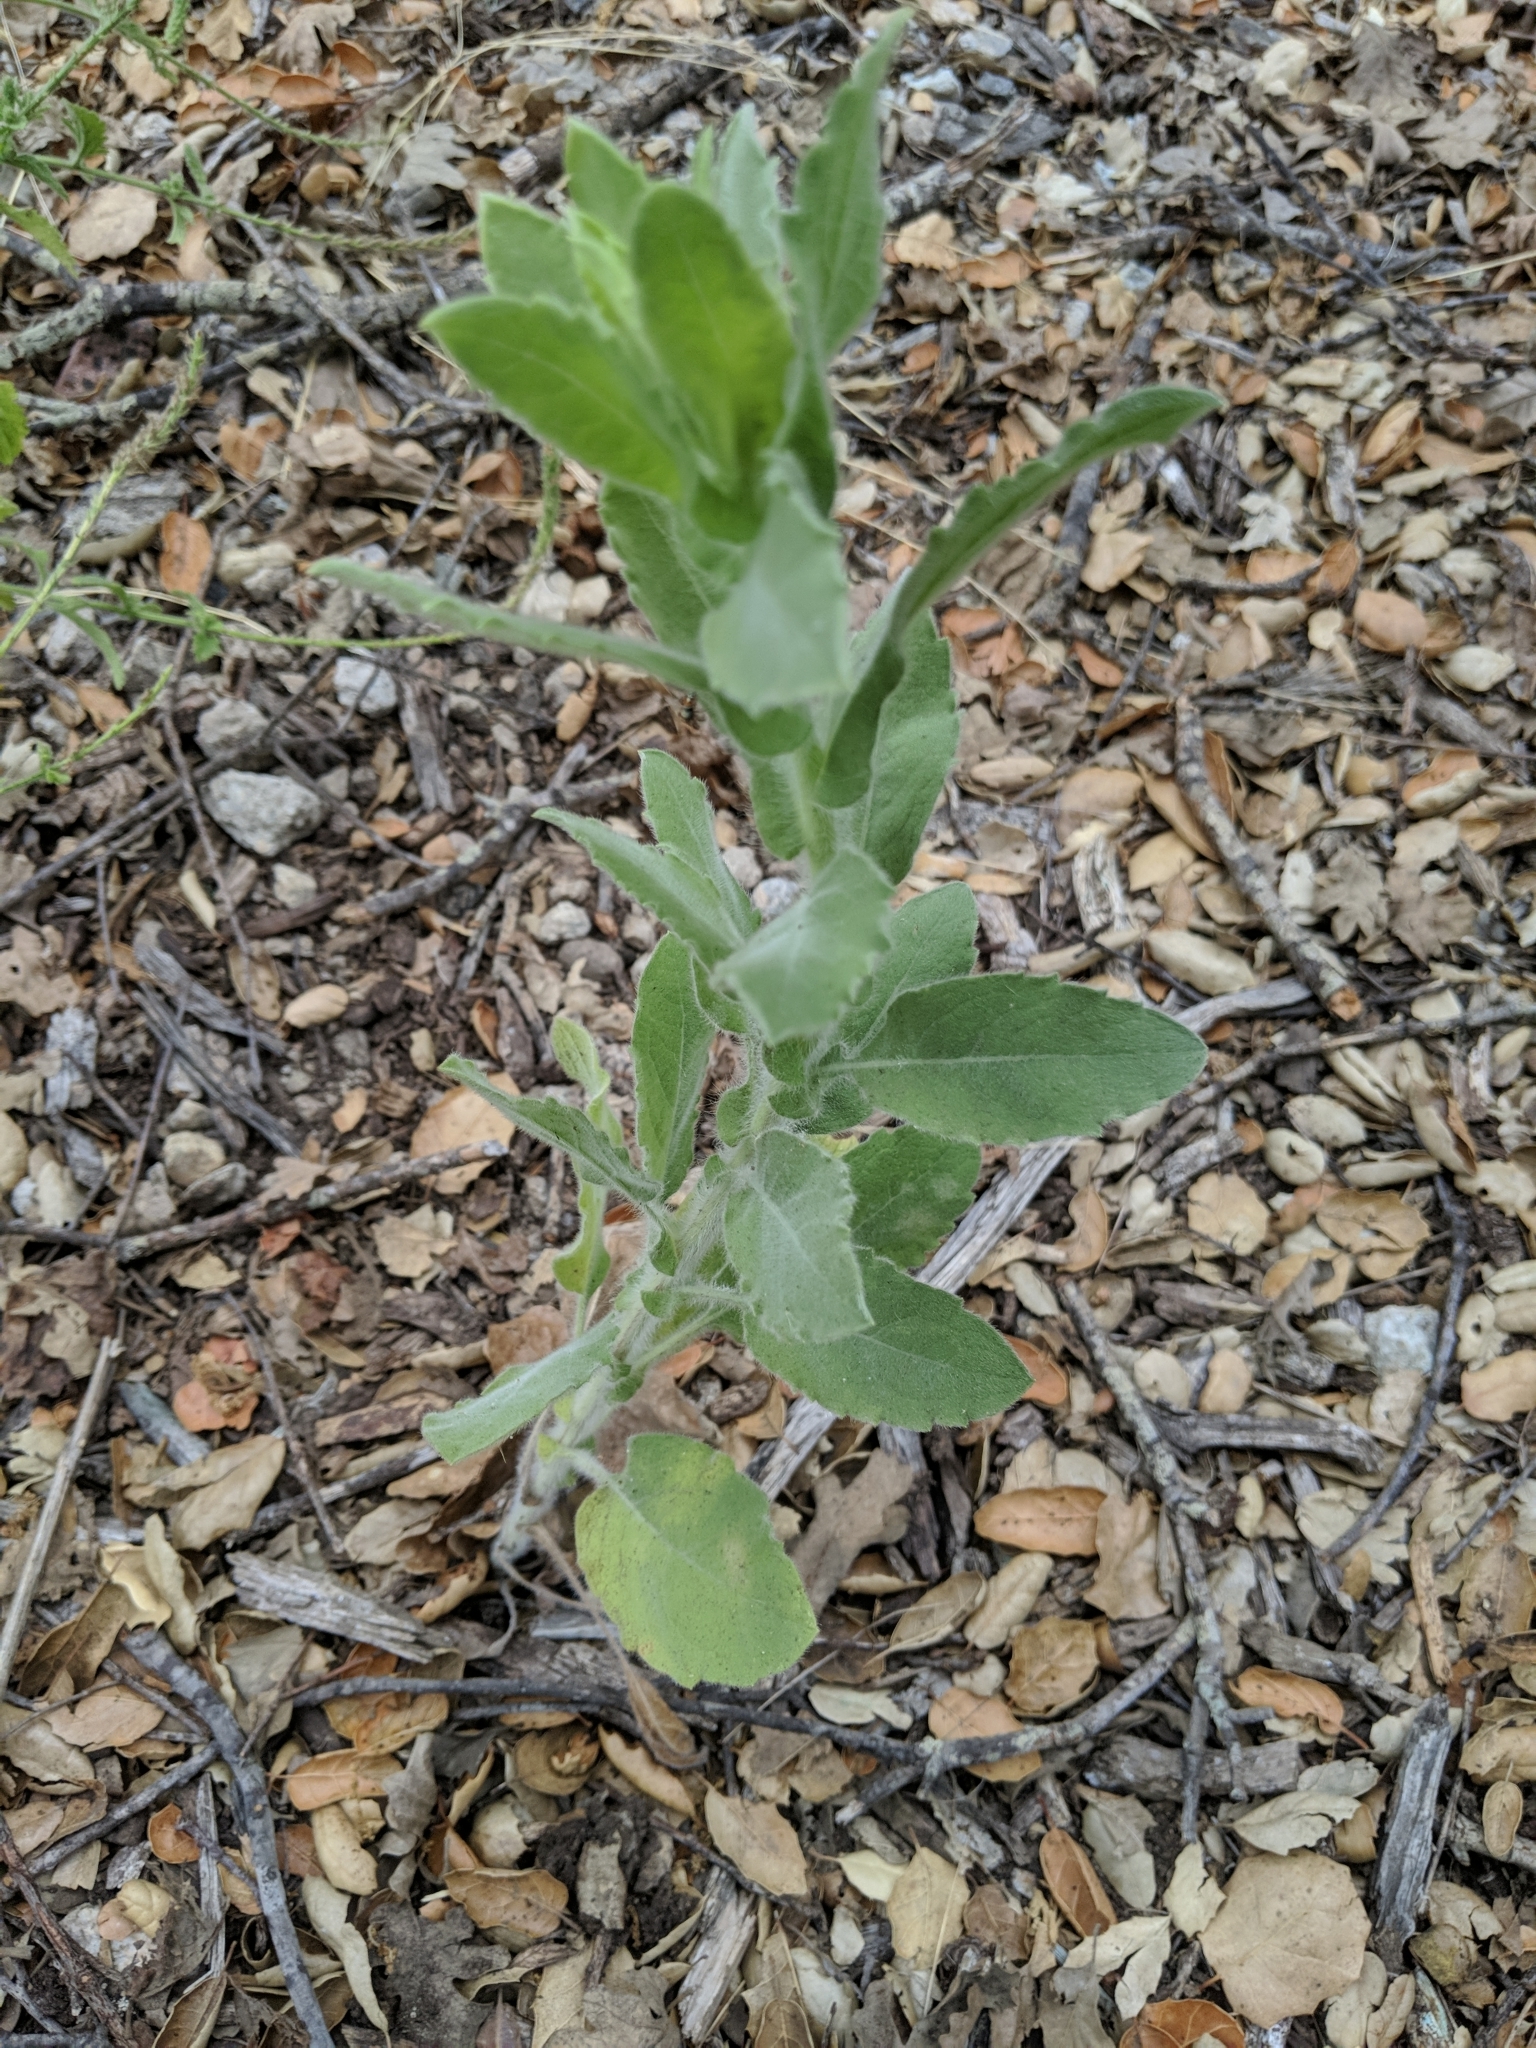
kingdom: Plantae
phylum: Tracheophyta
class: Magnoliopsida
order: Asterales
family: Asteraceae
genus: Heterotheca
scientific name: Heterotheca grandiflora
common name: Telegraphweed
